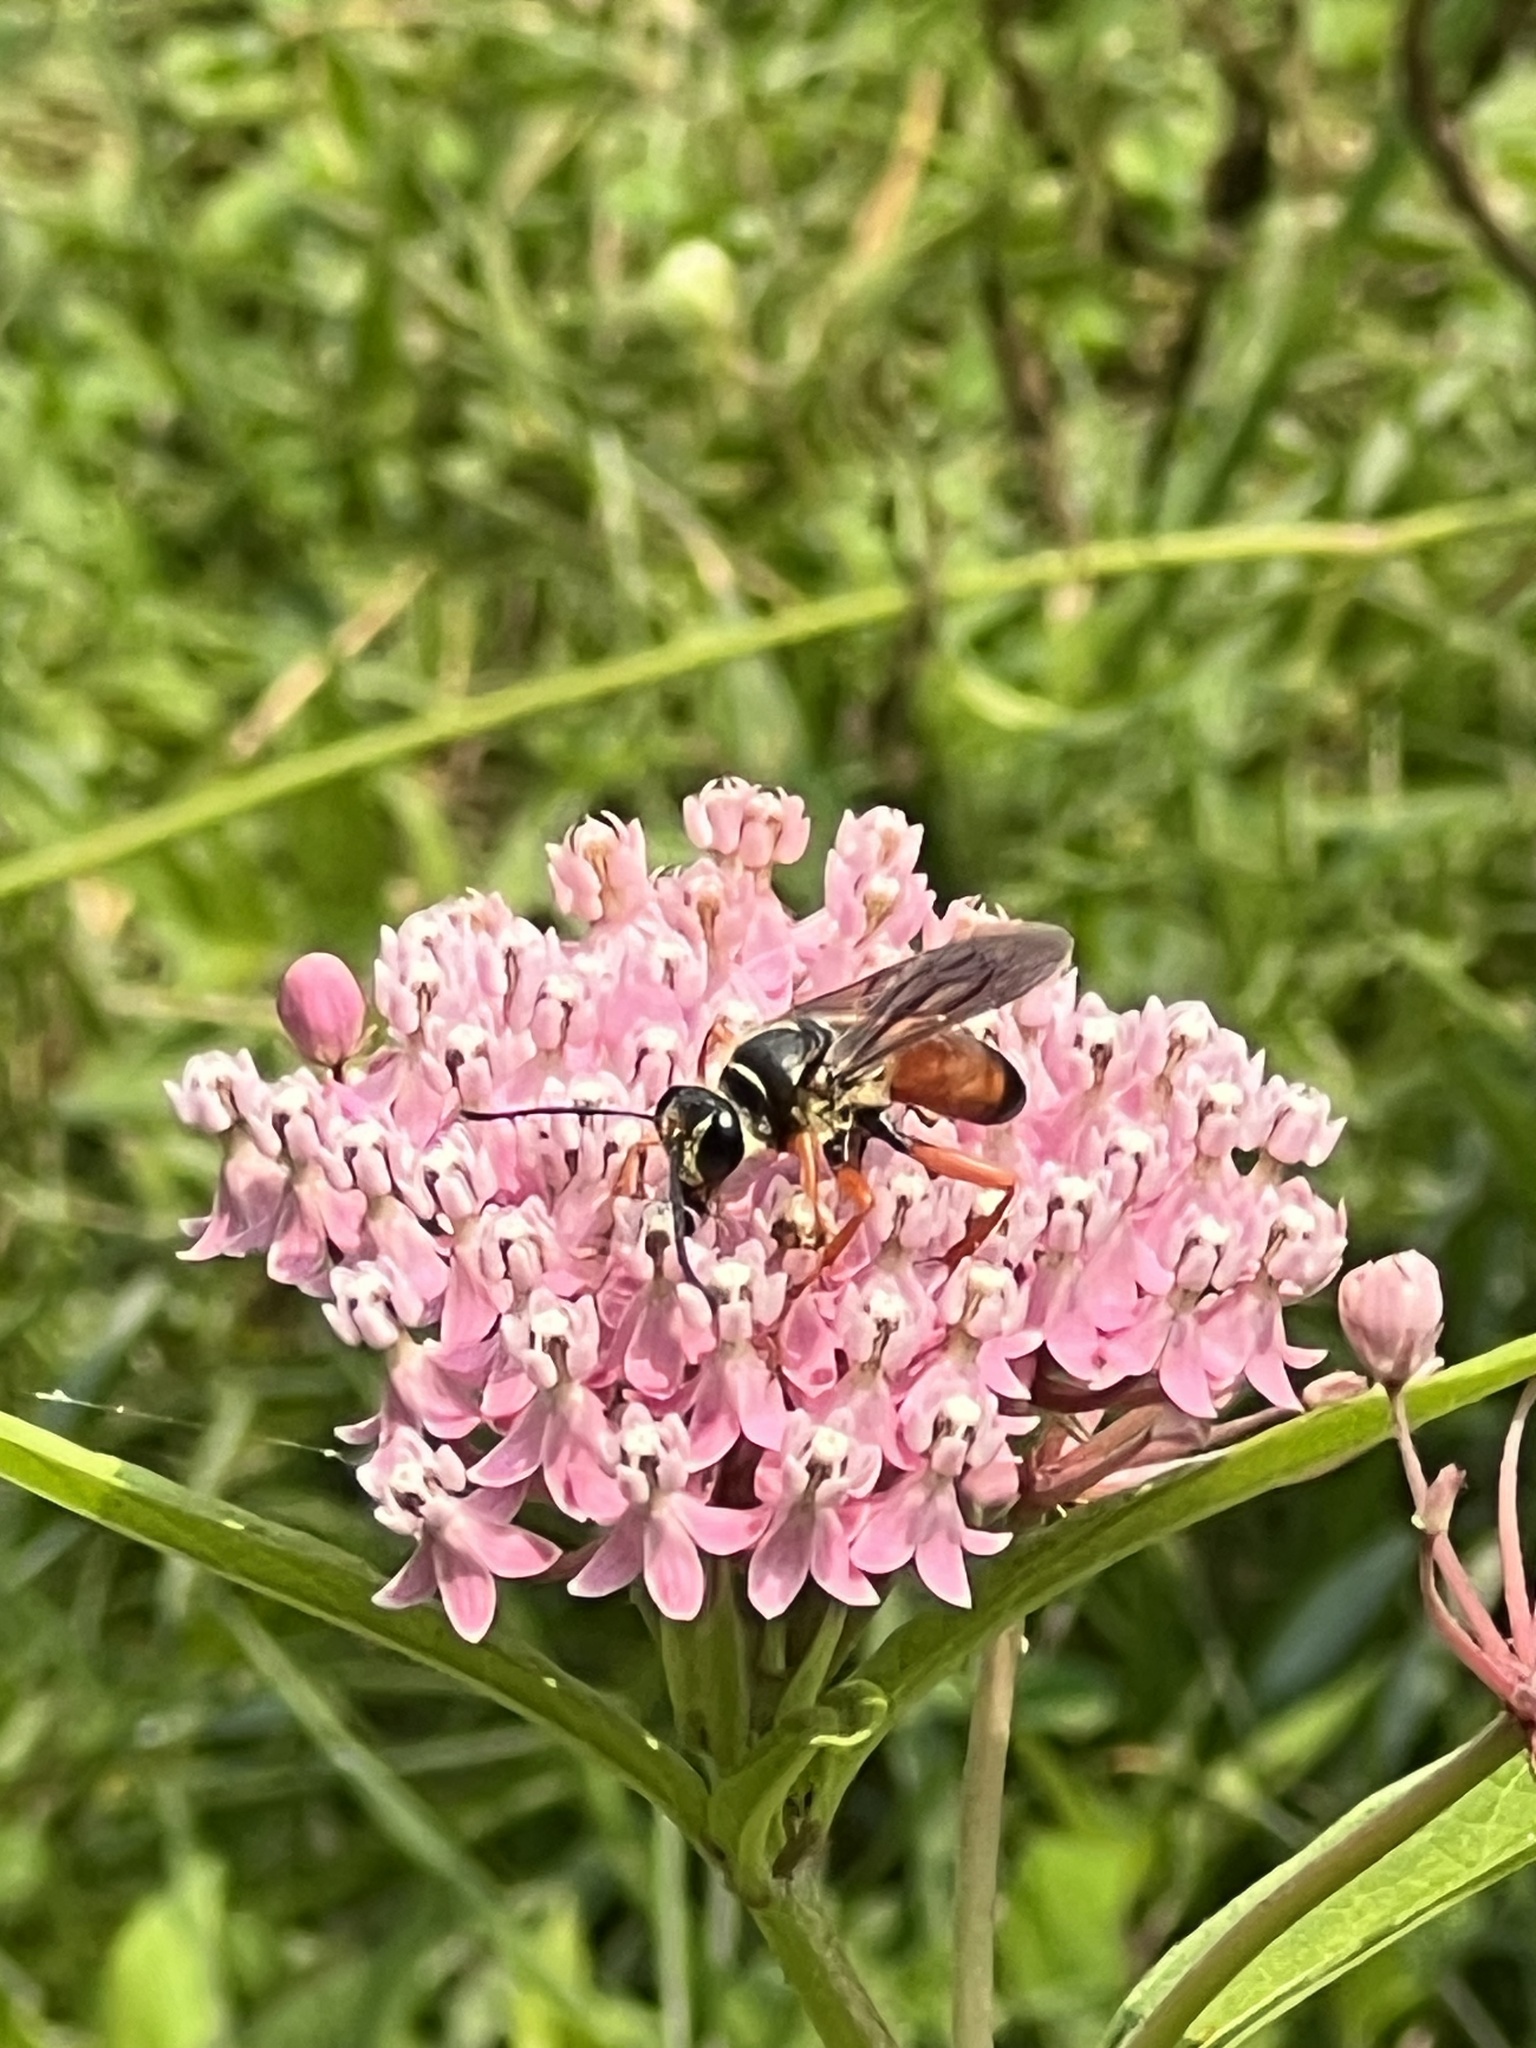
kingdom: Animalia
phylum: Arthropoda
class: Insecta
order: Hymenoptera
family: Sphecidae
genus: Sphex
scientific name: Sphex ichneumoneus
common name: Great golden digger wasp
